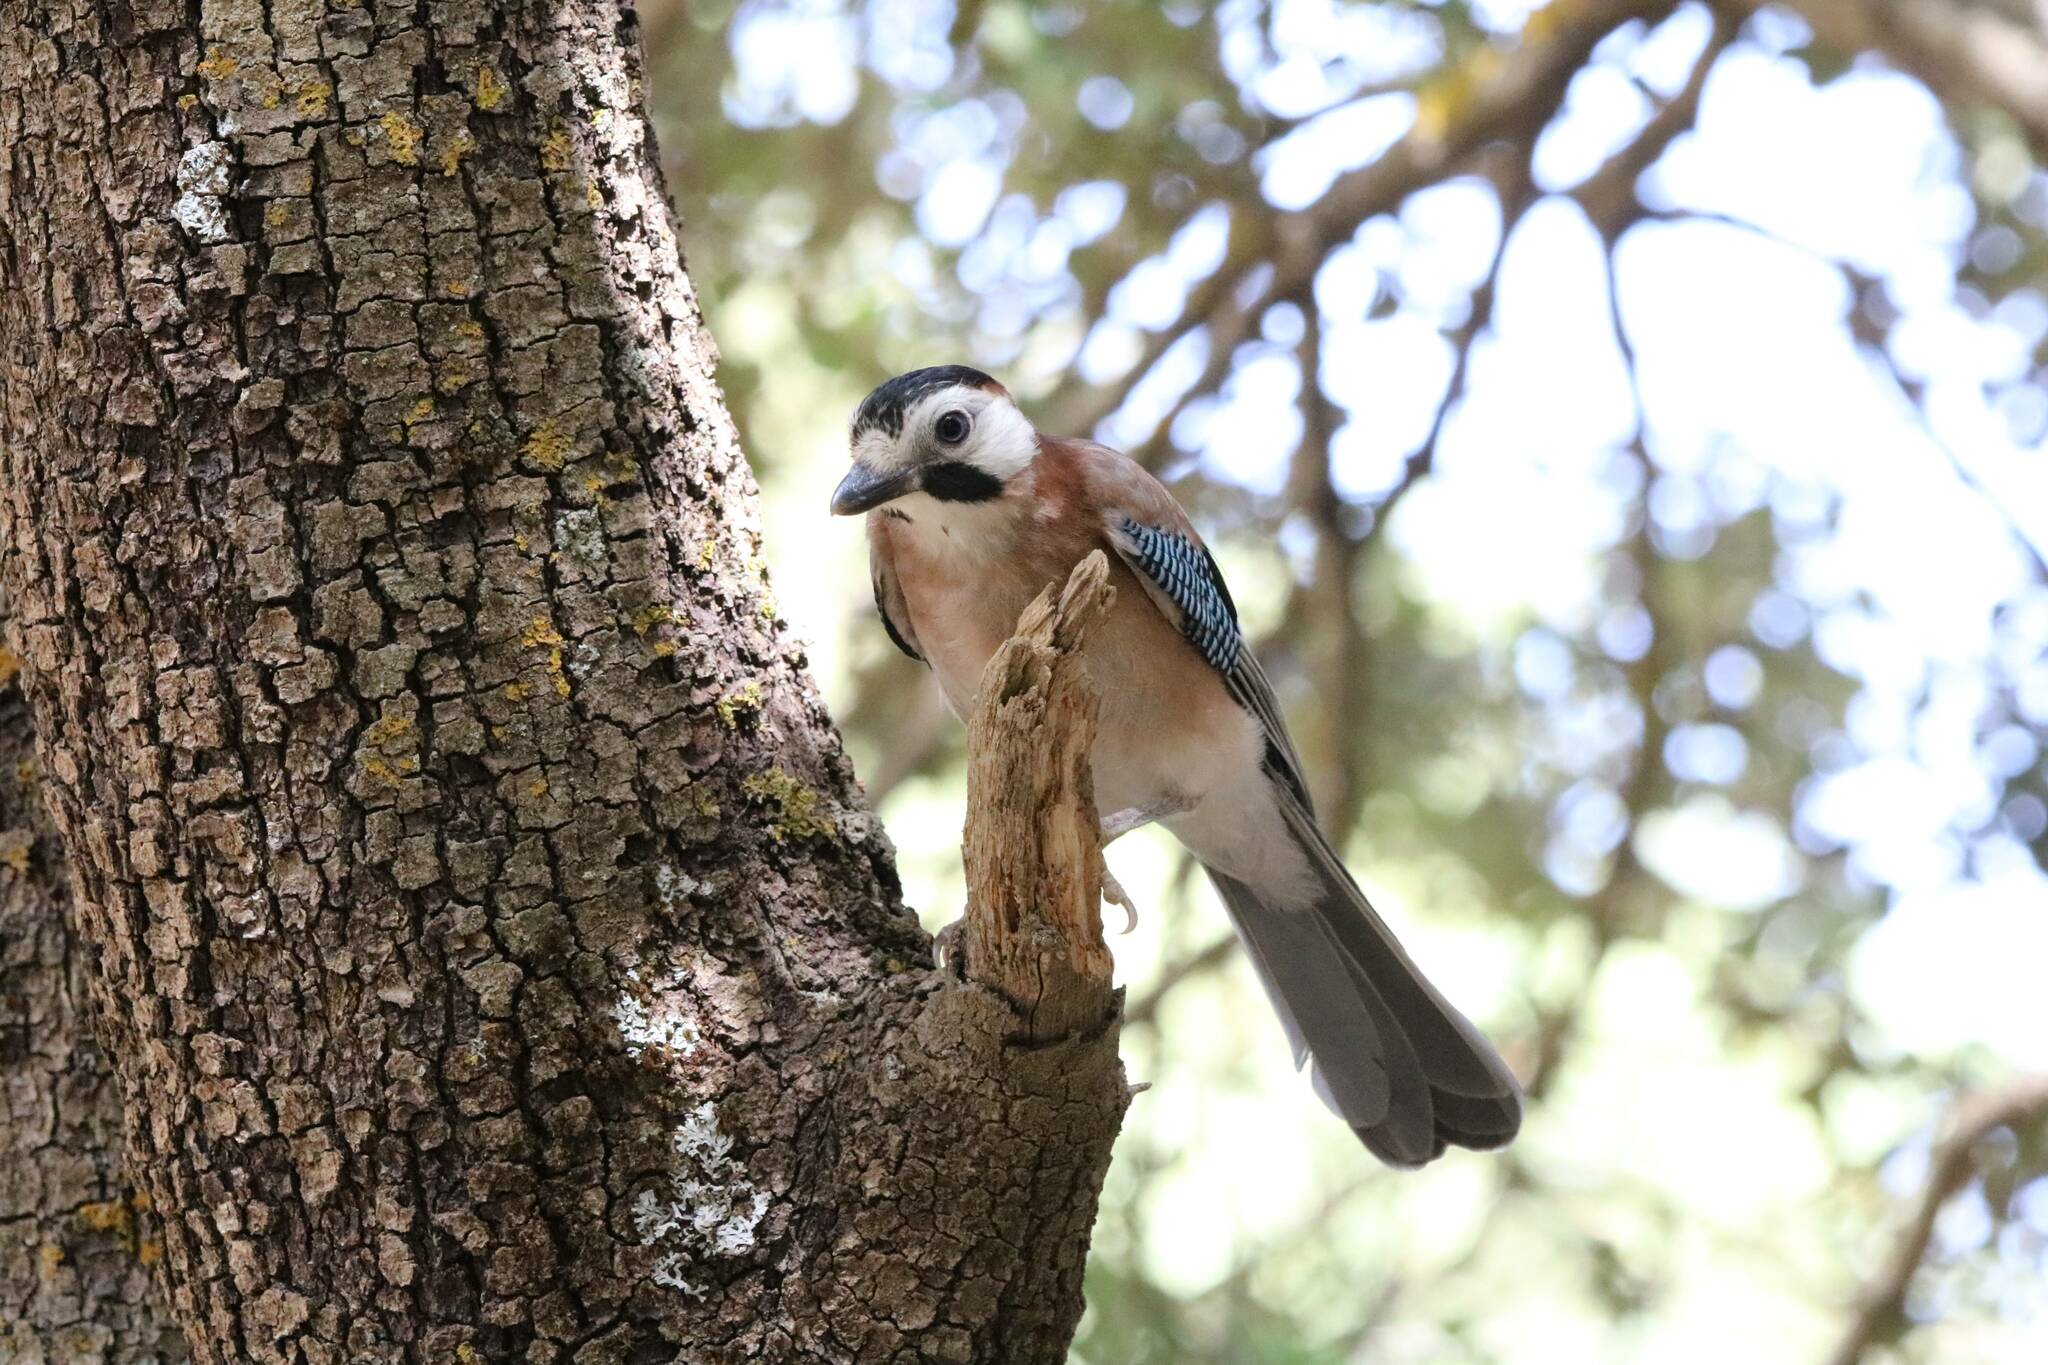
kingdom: Animalia
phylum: Chordata
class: Aves
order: Passeriformes
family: Corvidae
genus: Garrulus
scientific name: Garrulus glandarius
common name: Eurasian jay
